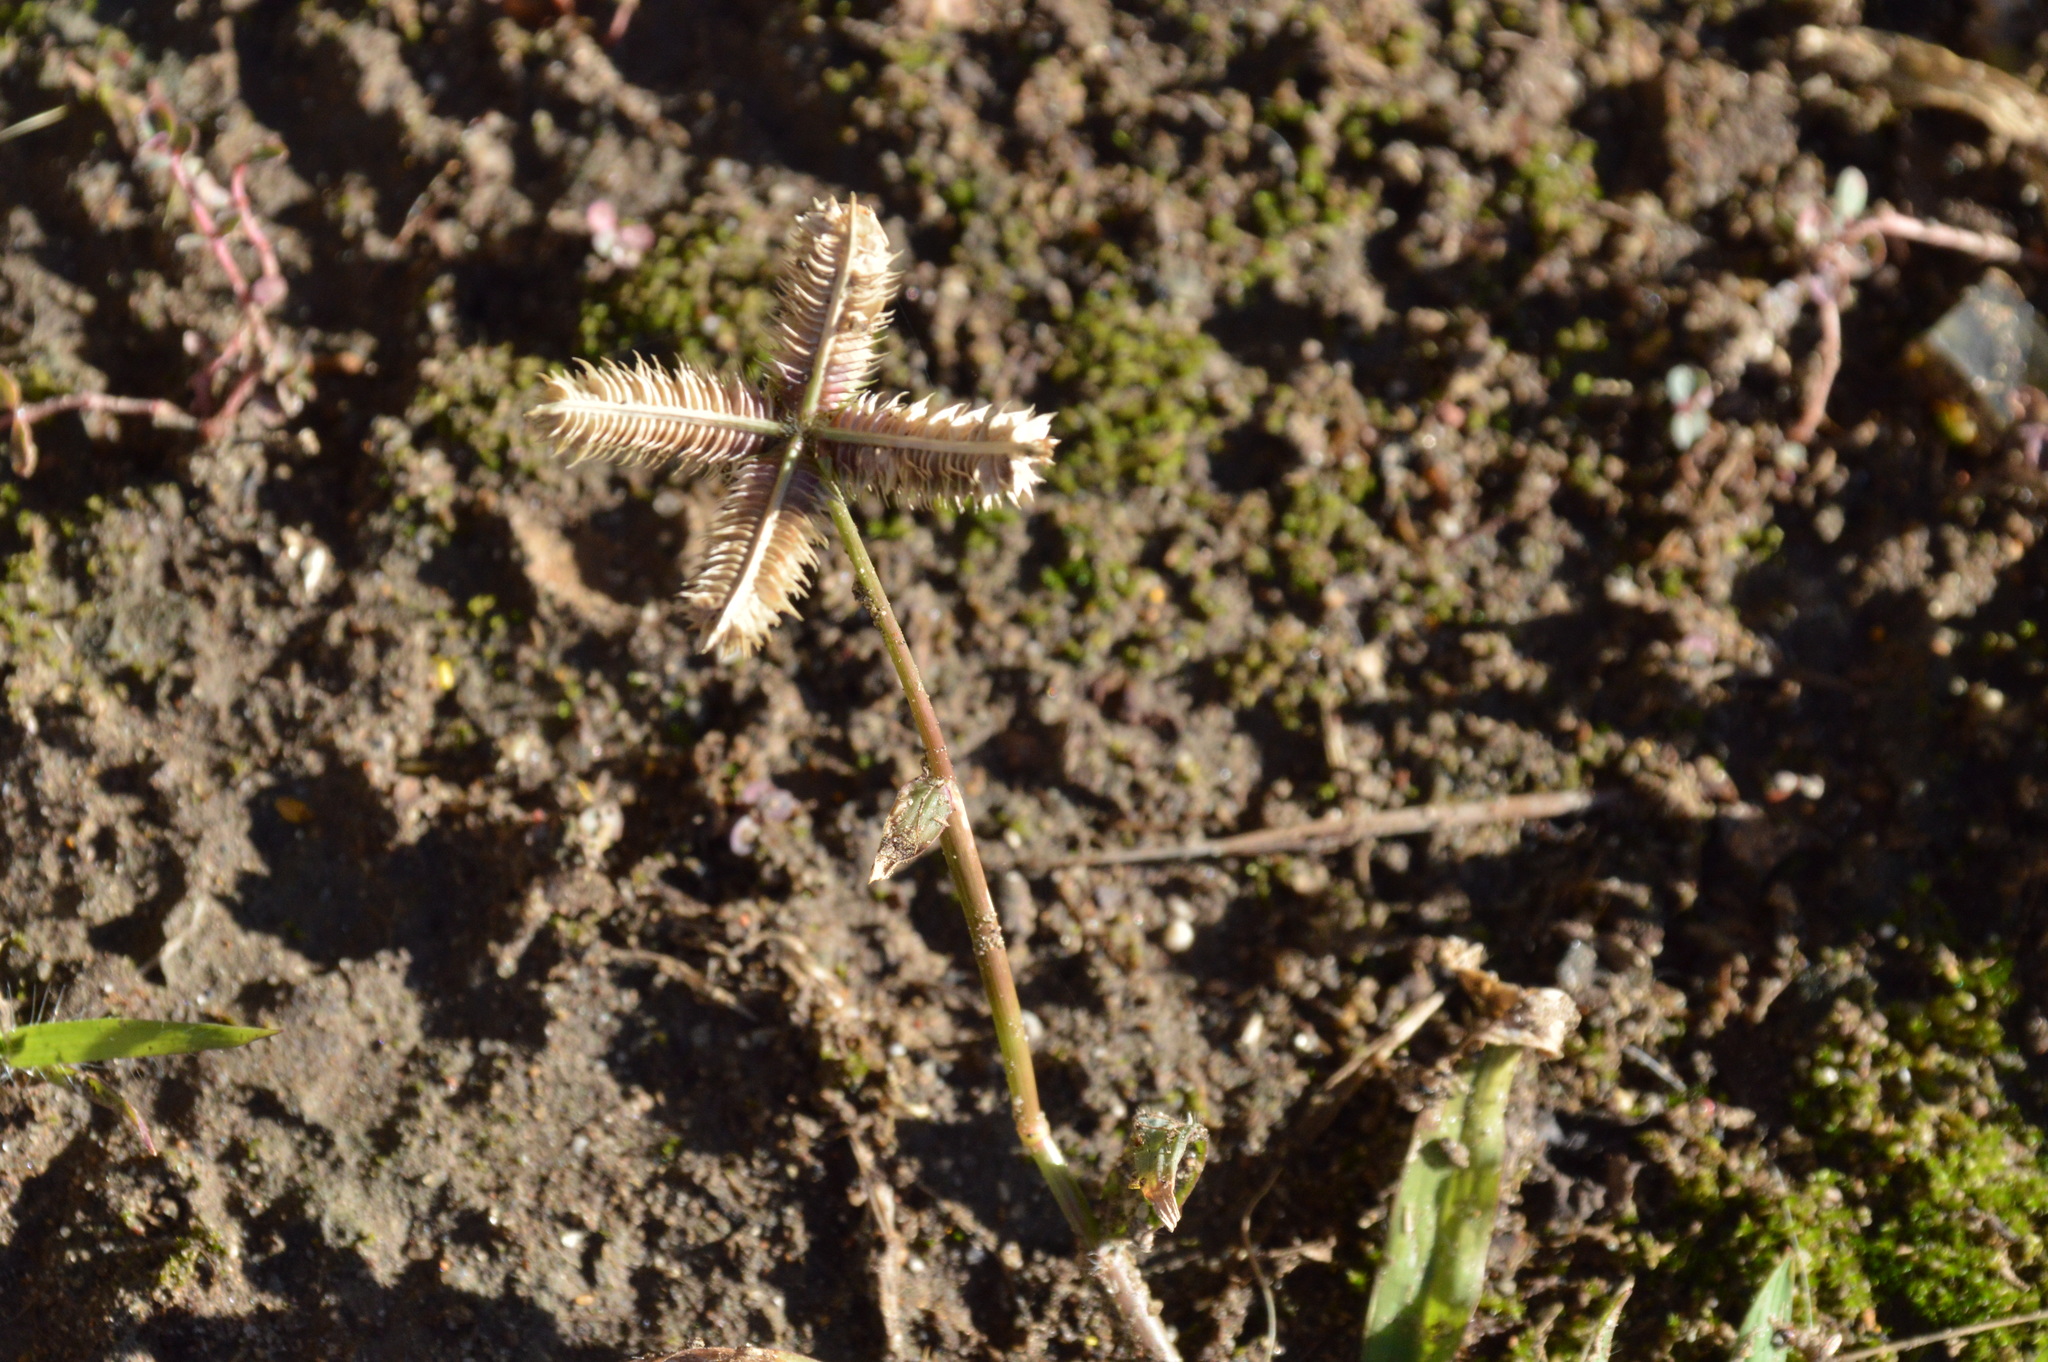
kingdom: Plantae
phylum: Tracheophyta
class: Liliopsida
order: Poales
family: Poaceae
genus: Dactyloctenium
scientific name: Dactyloctenium aegyptium
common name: Egyptian grass
